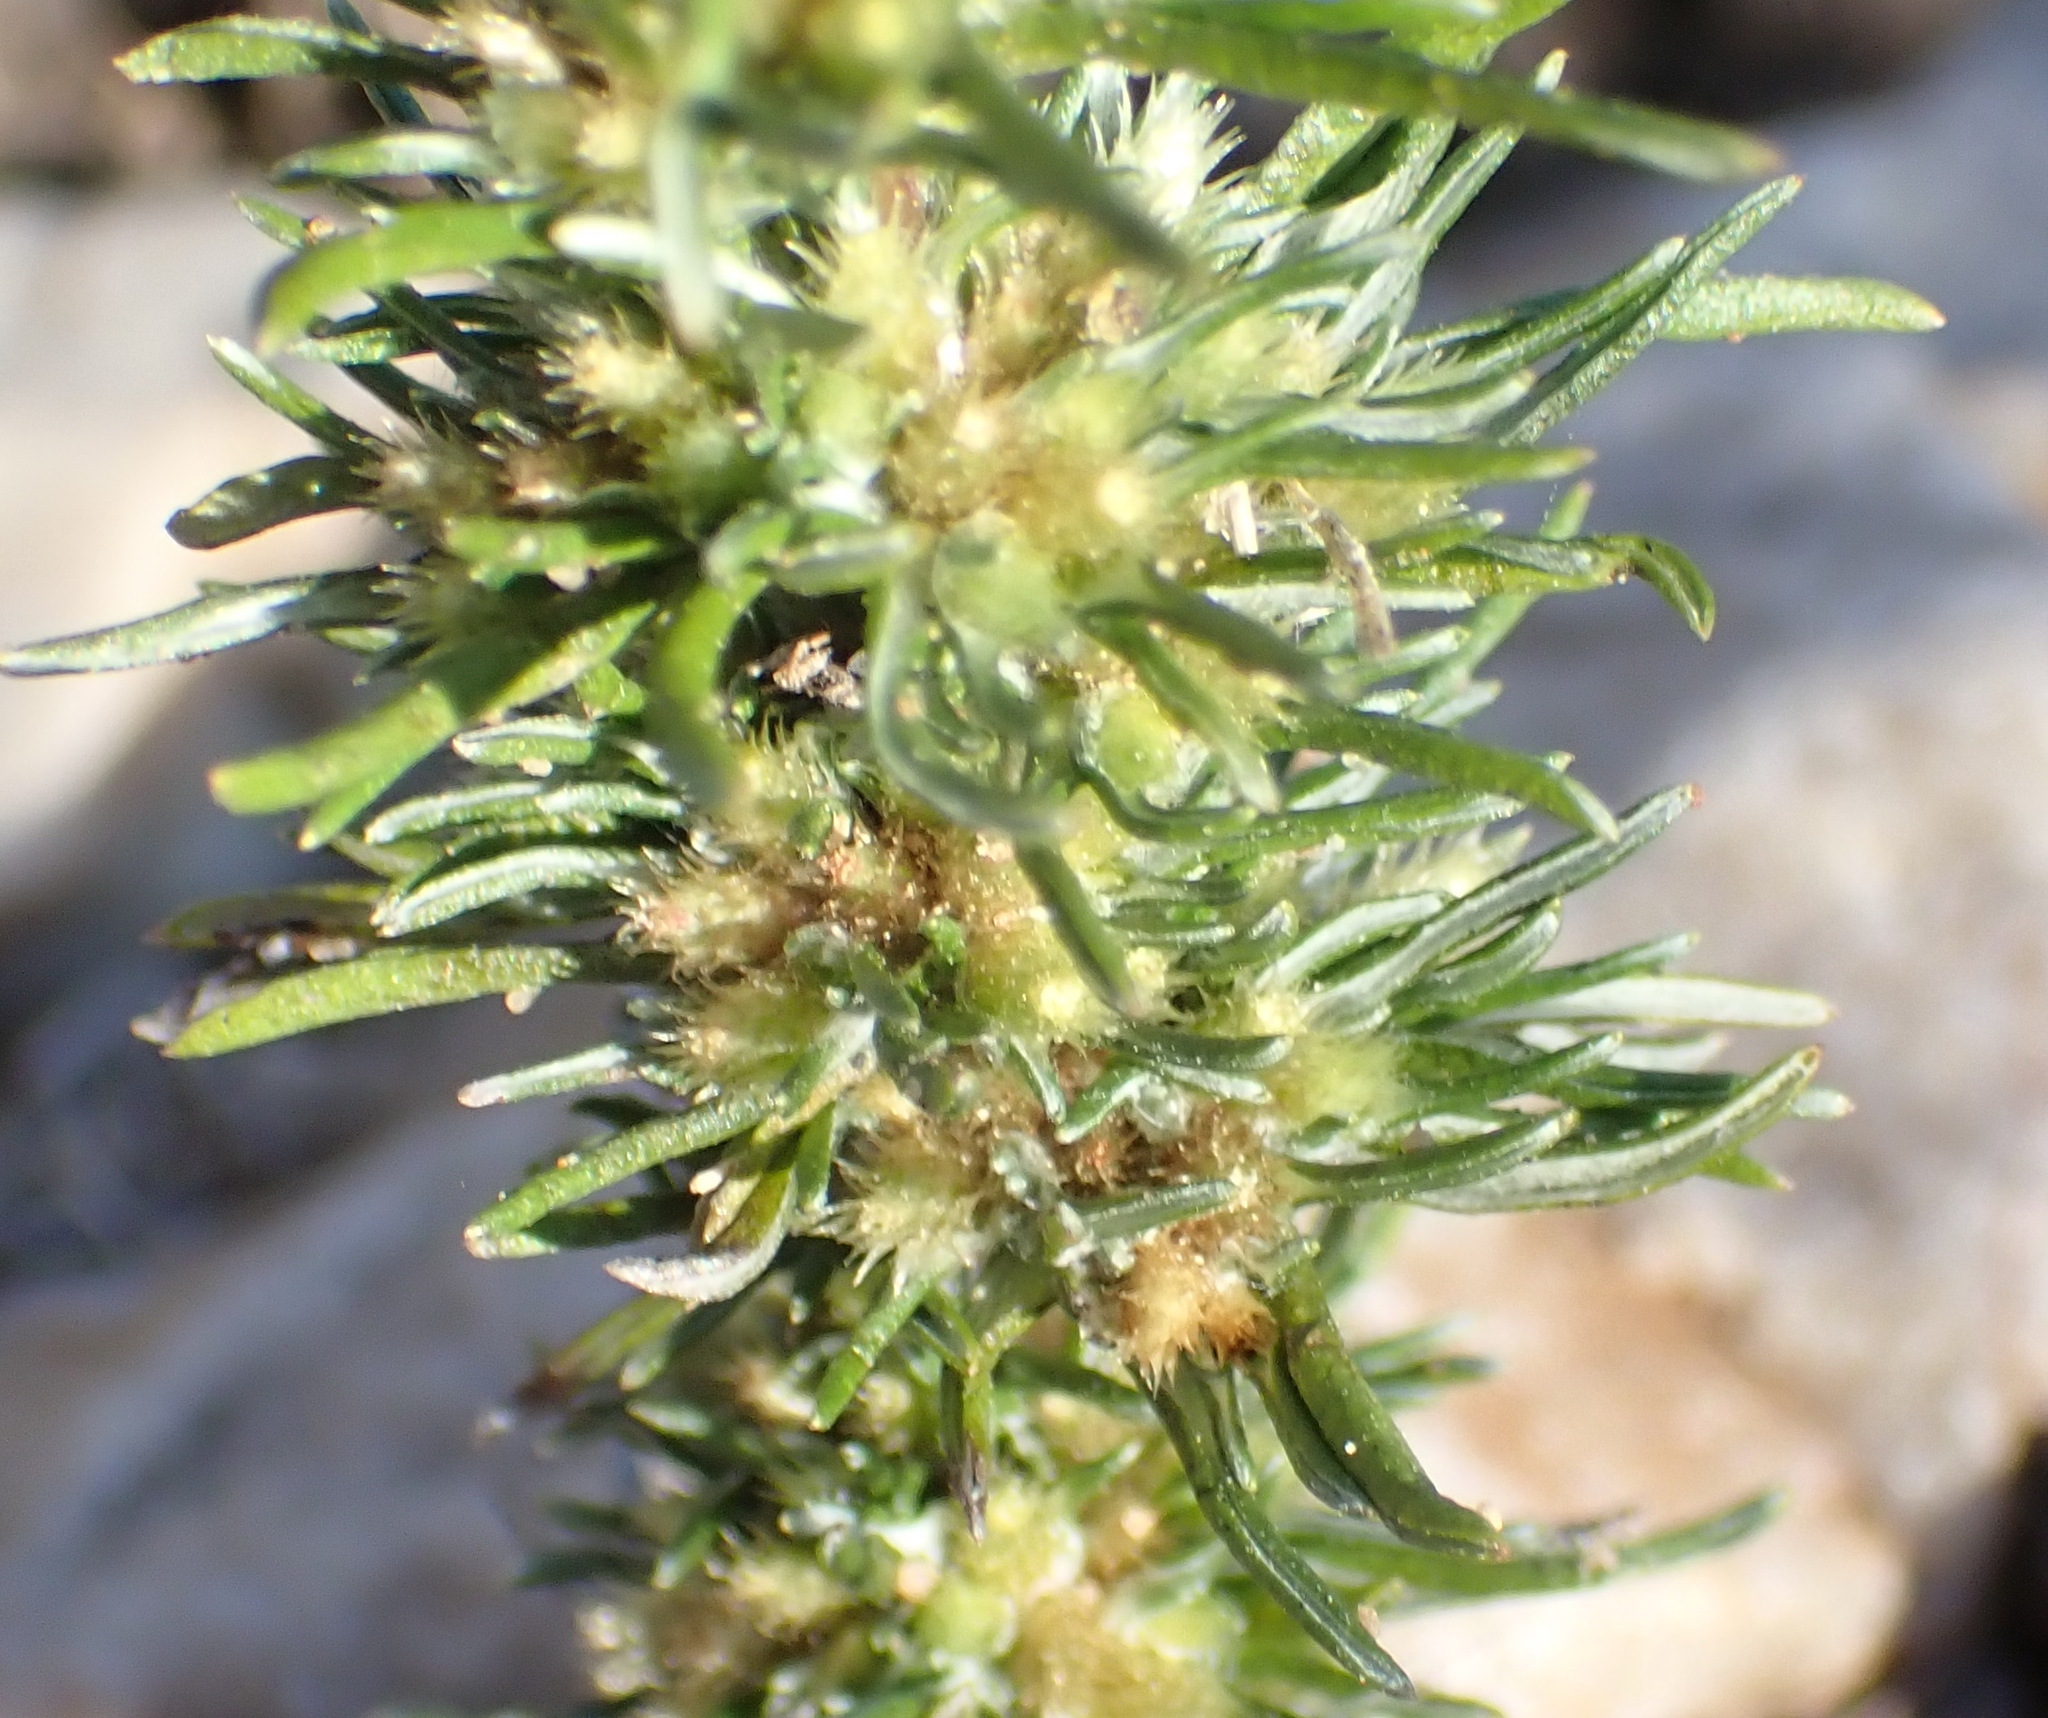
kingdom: Plantae
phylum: Tracheophyta
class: Magnoliopsida
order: Asterales
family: Asteraceae
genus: Ifloga
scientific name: Ifloga glomerata
